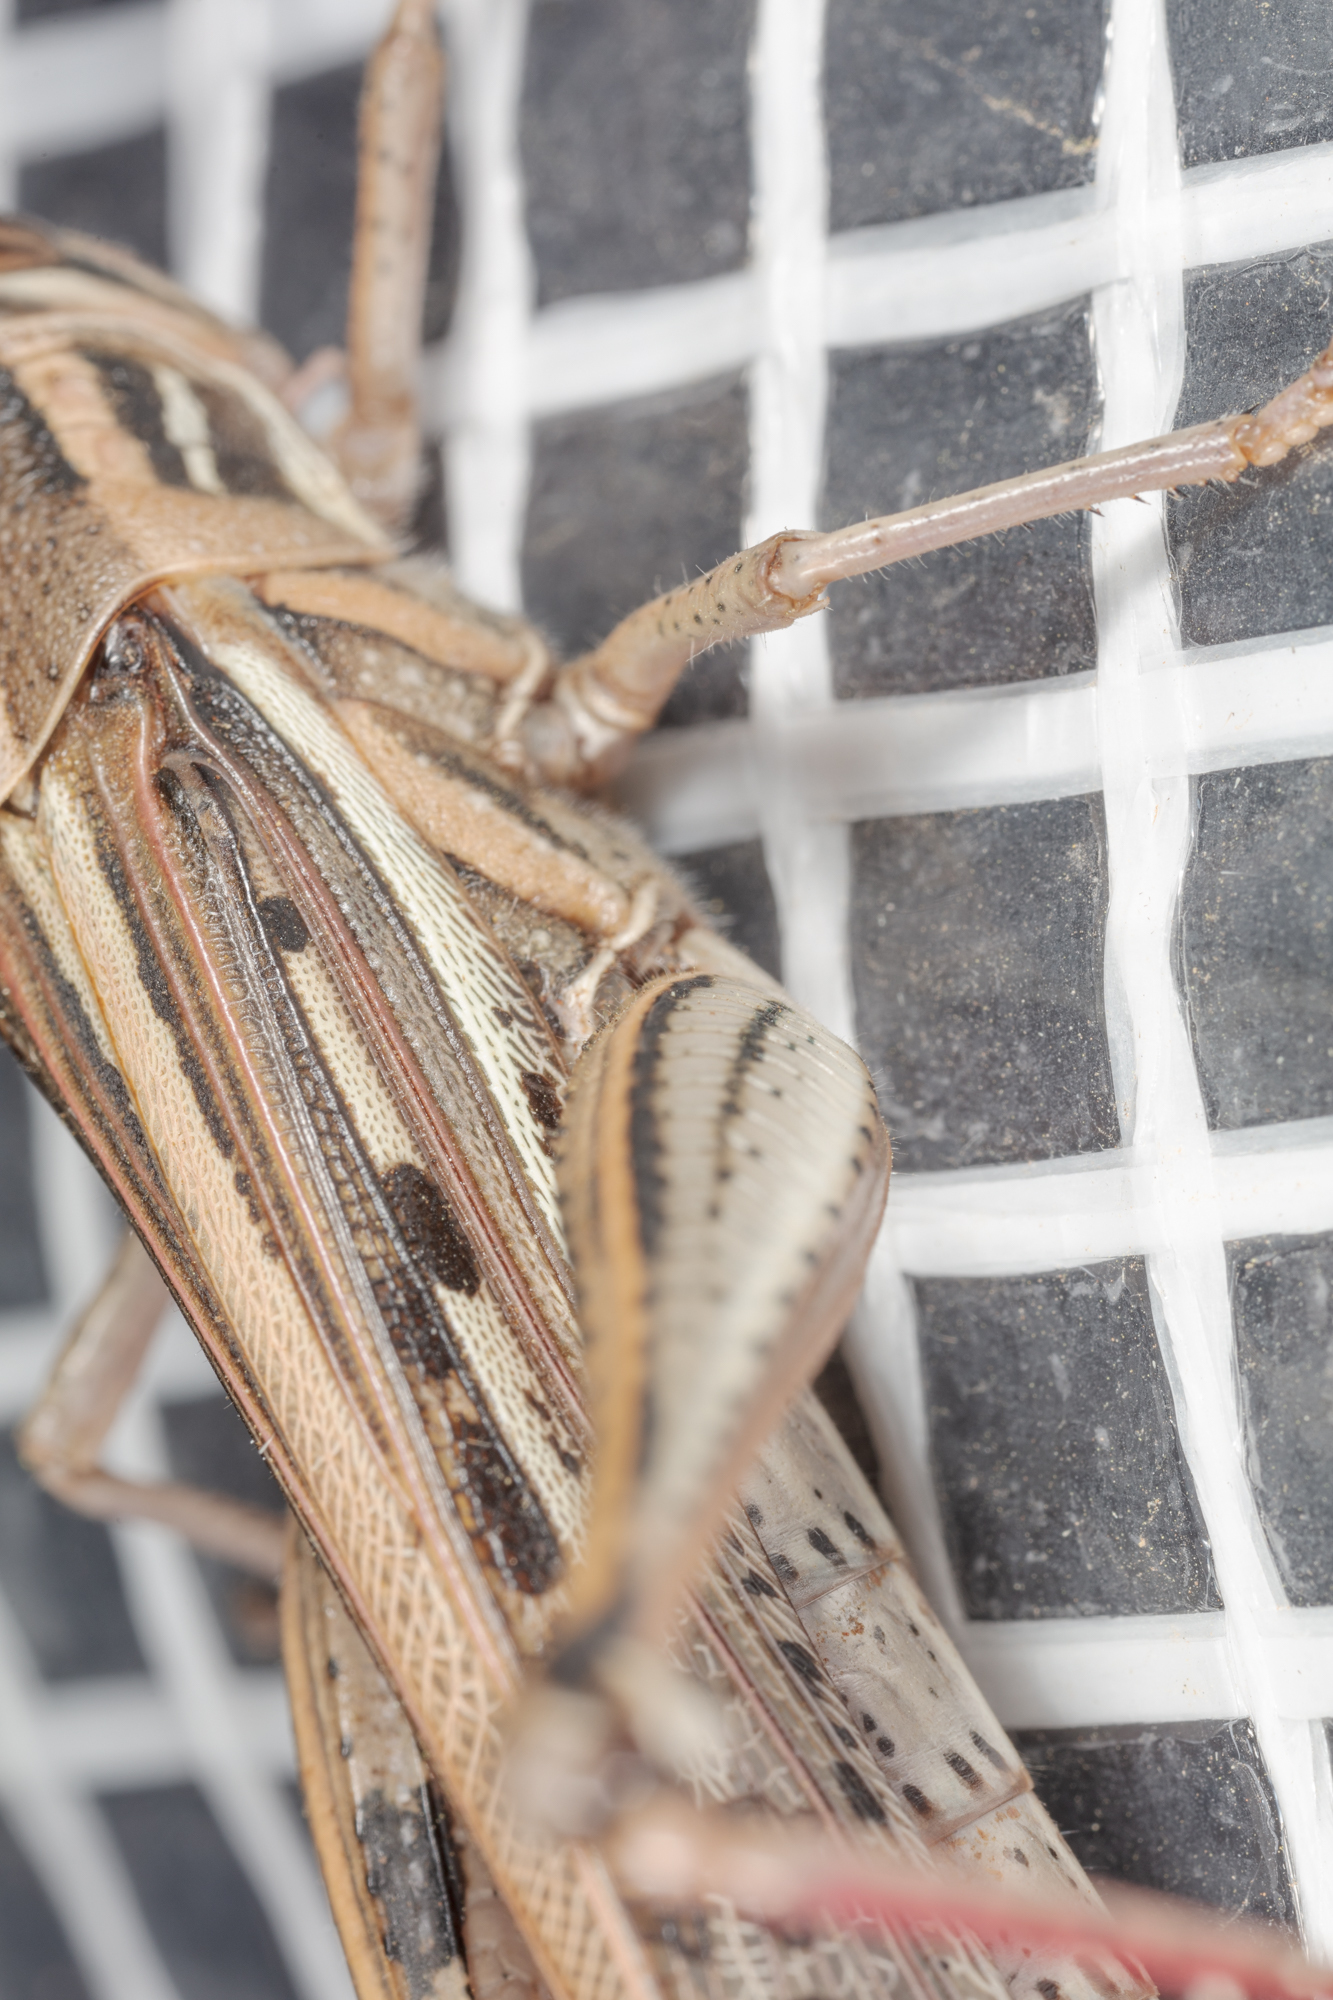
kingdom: Animalia
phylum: Arthropoda
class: Insecta
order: Orthoptera
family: Acrididae
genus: Schistocerca
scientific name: Schistocerca americana
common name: American bird locust
